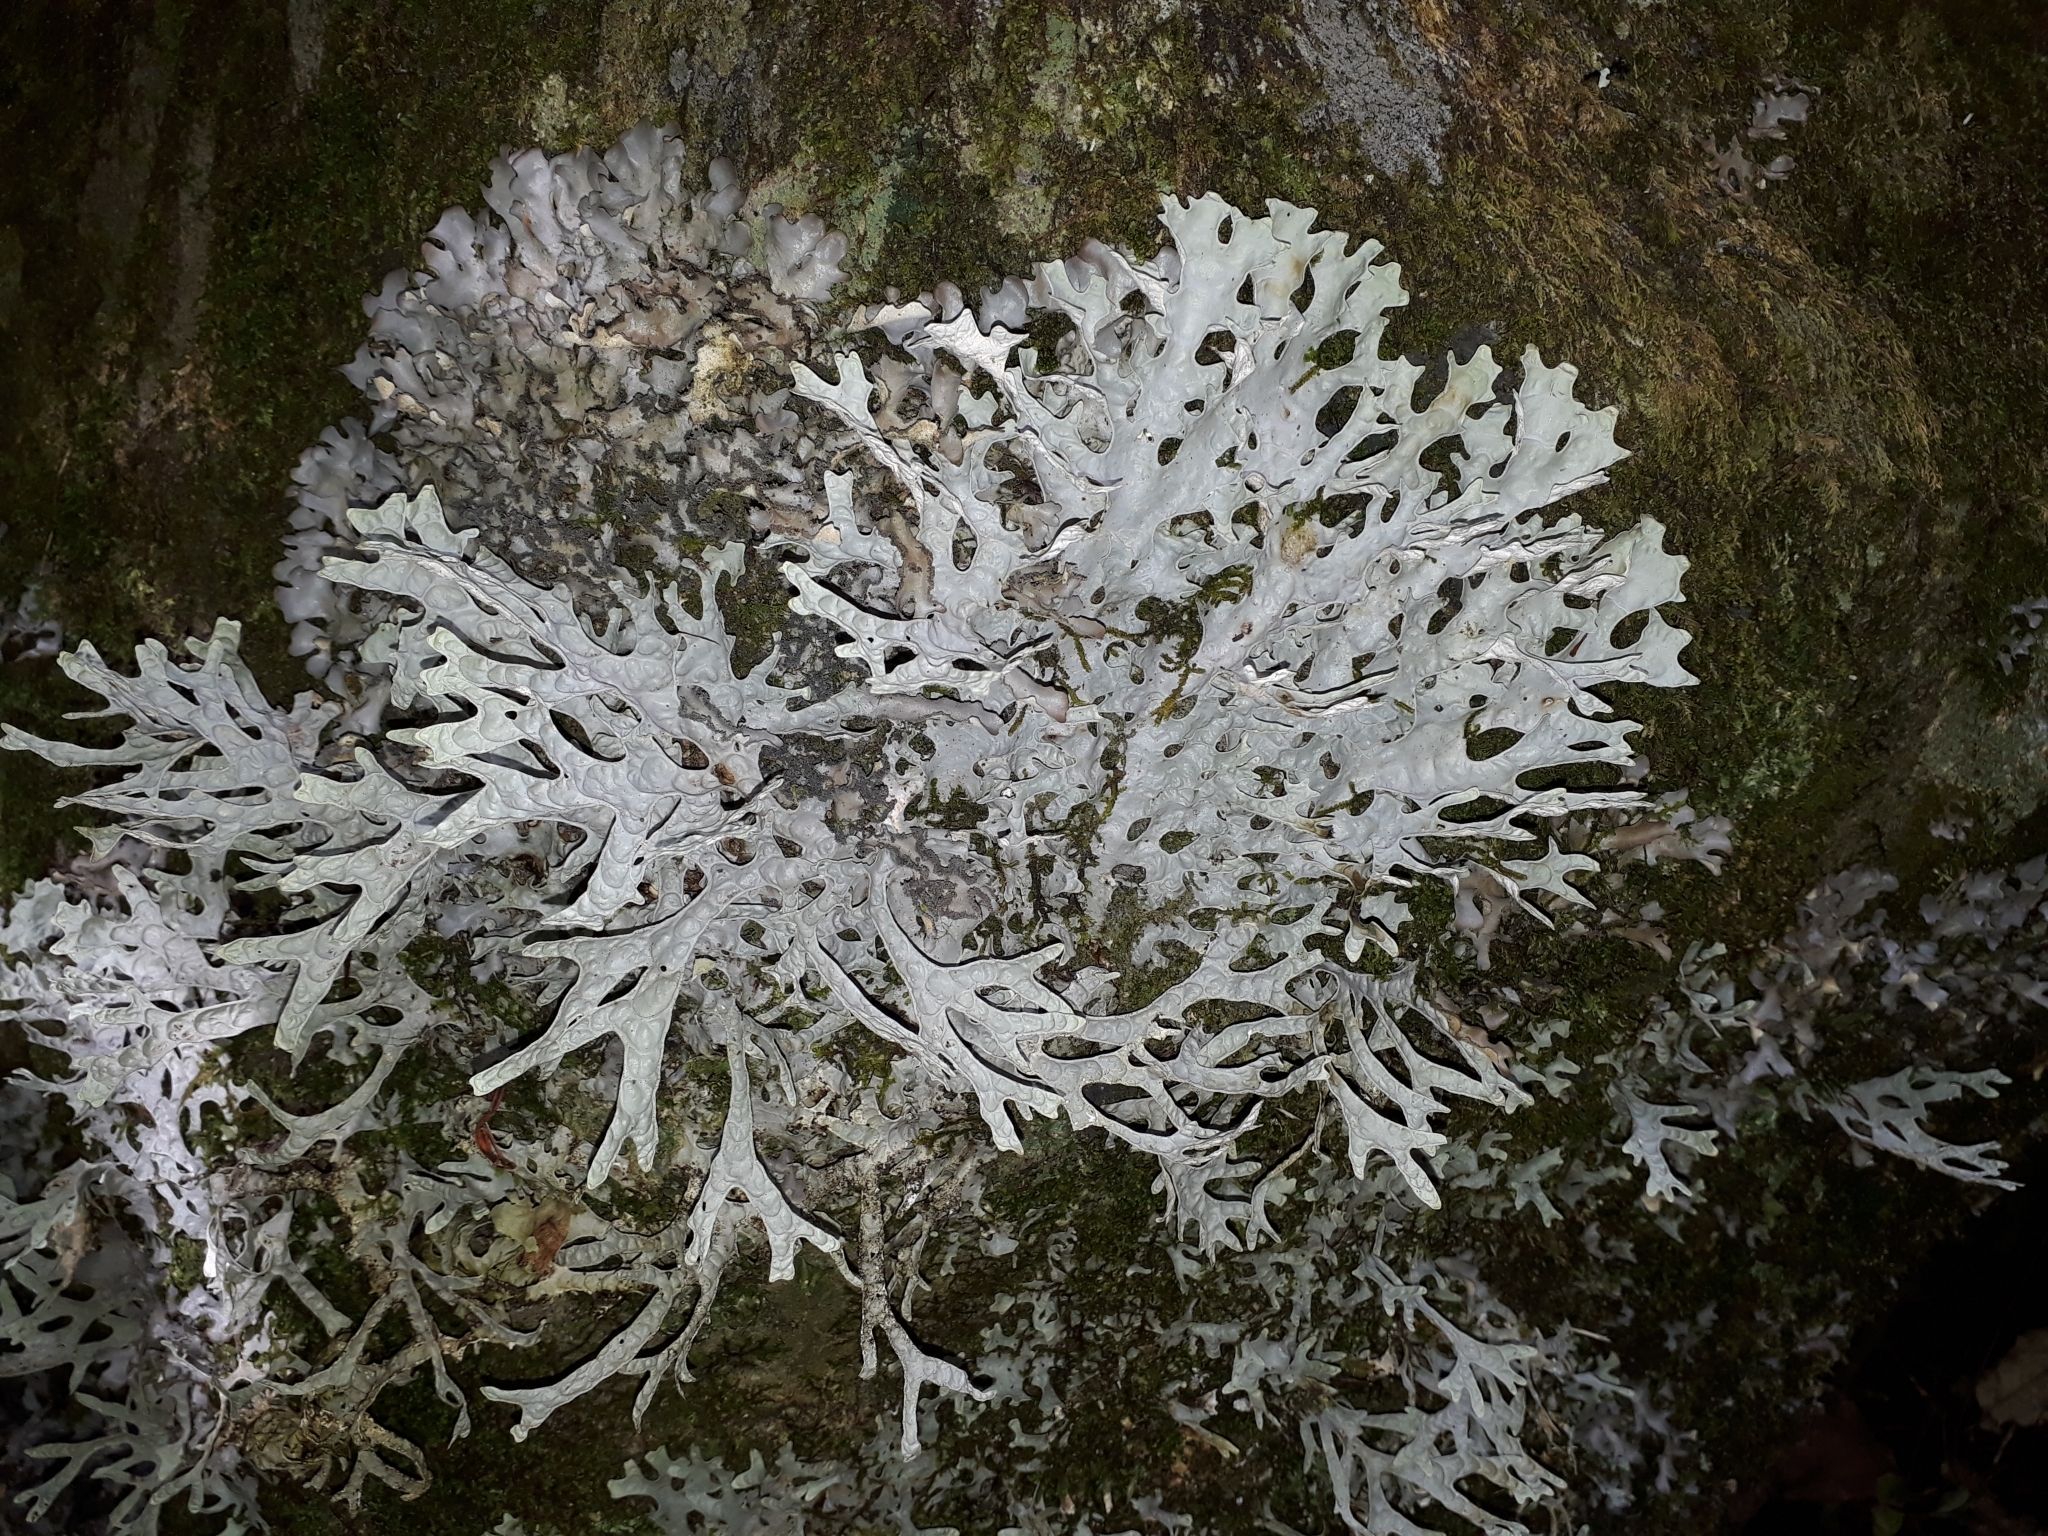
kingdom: Fungi
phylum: Ascomycota
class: Lecanoromycetes
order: Peltigerales
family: Lobariaceae
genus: Pseudocyphellaria
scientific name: Pseudocyphellaria rufovirescens
